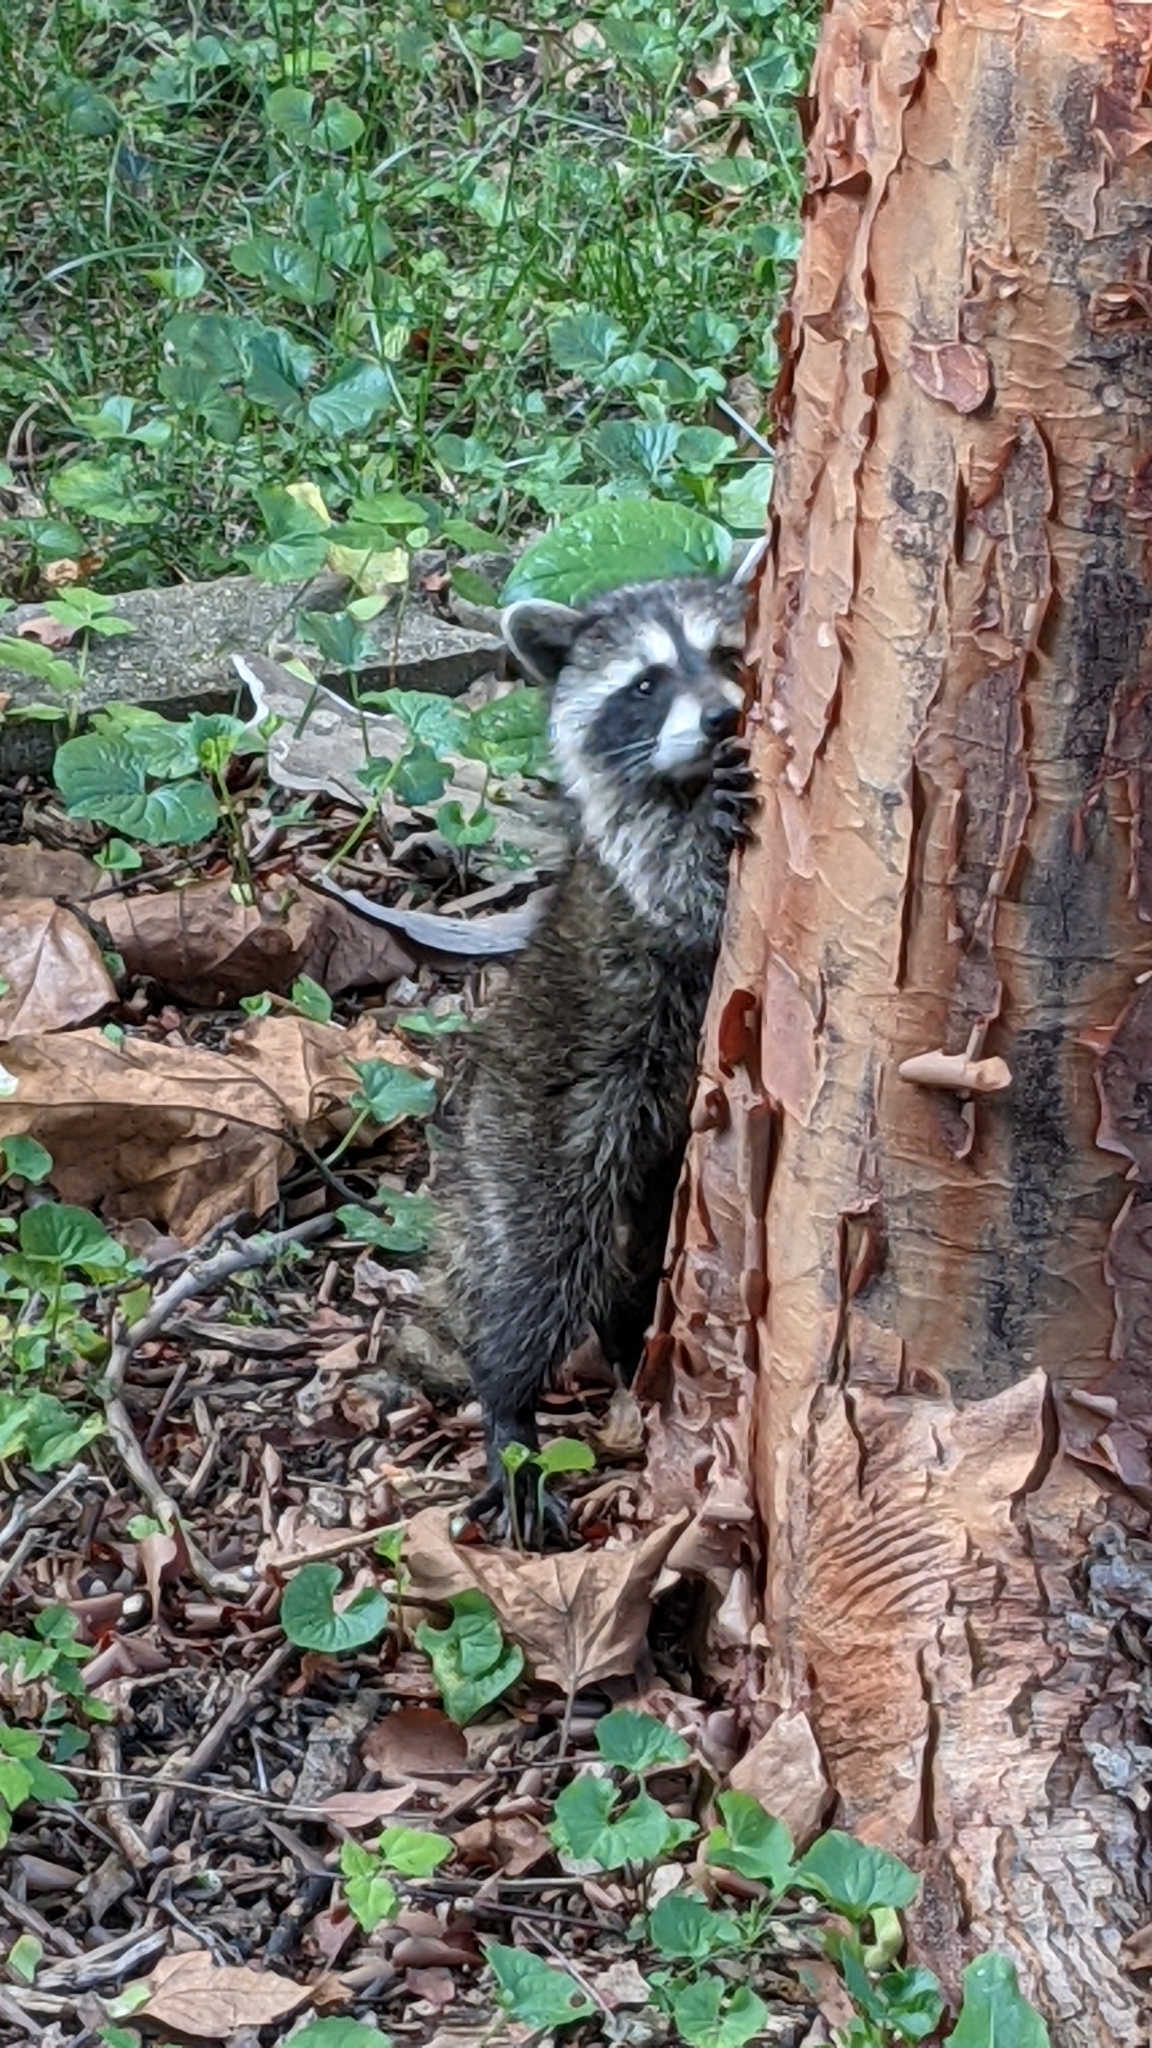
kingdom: Animalia
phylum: Chordata
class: Mammalia
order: Carnivora
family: Procyonidae
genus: Procyon
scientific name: Procyon lotor
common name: Raccoon
